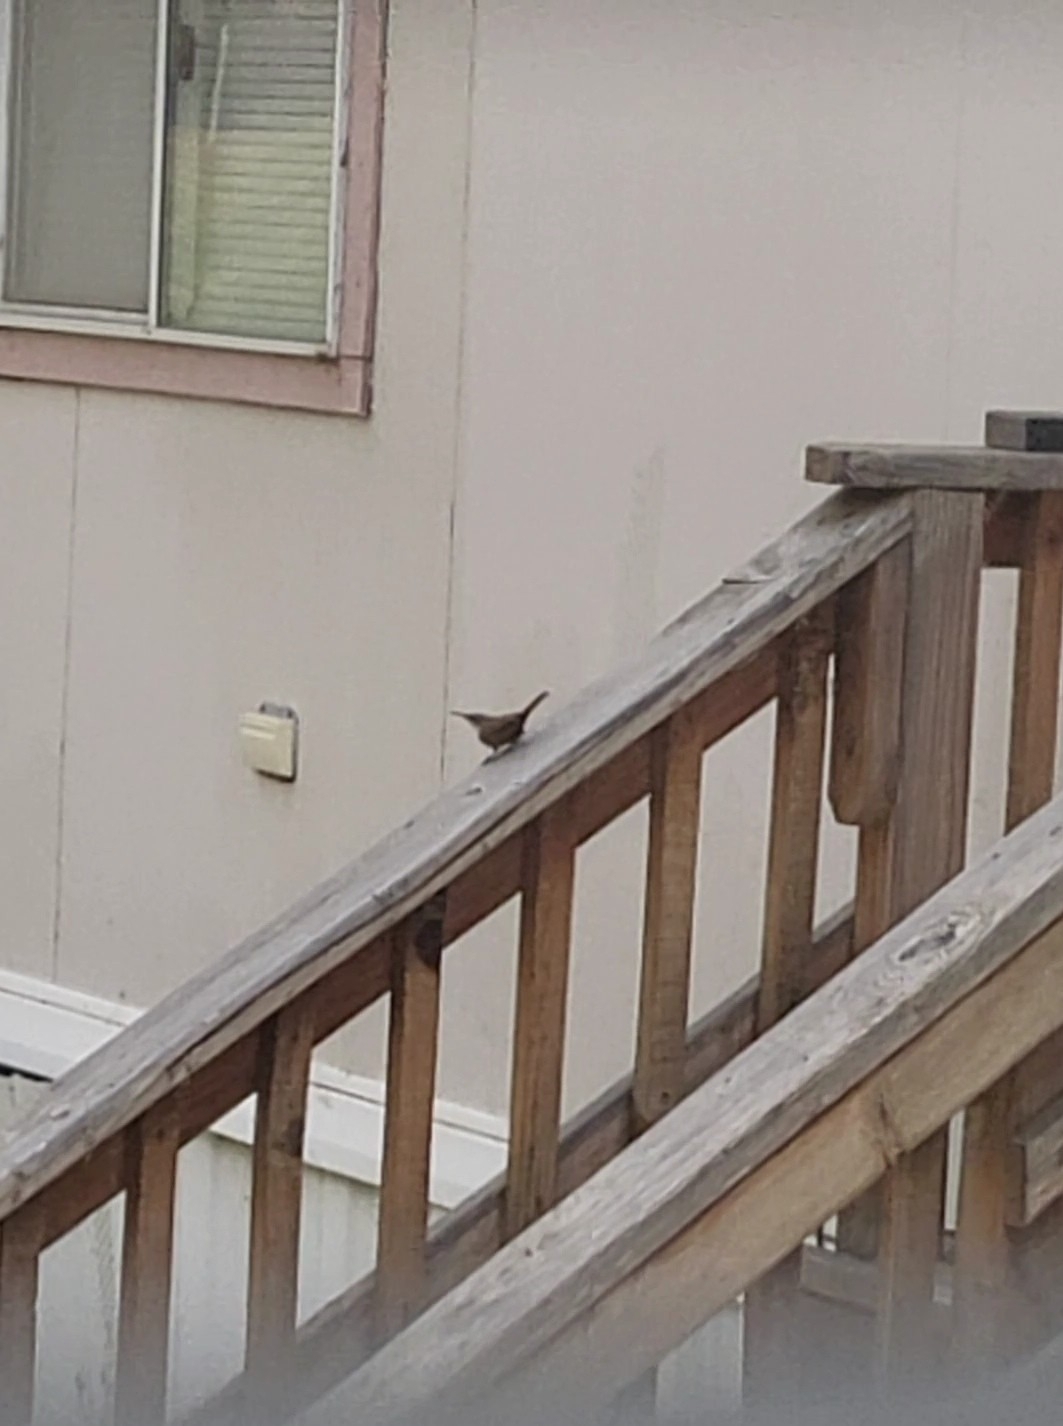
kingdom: Animalia
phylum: Chordata
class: Aves
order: Passeriformes
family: Troglodytidae
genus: Catherpes
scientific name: Catherpes mexicanus
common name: Canyon wren
